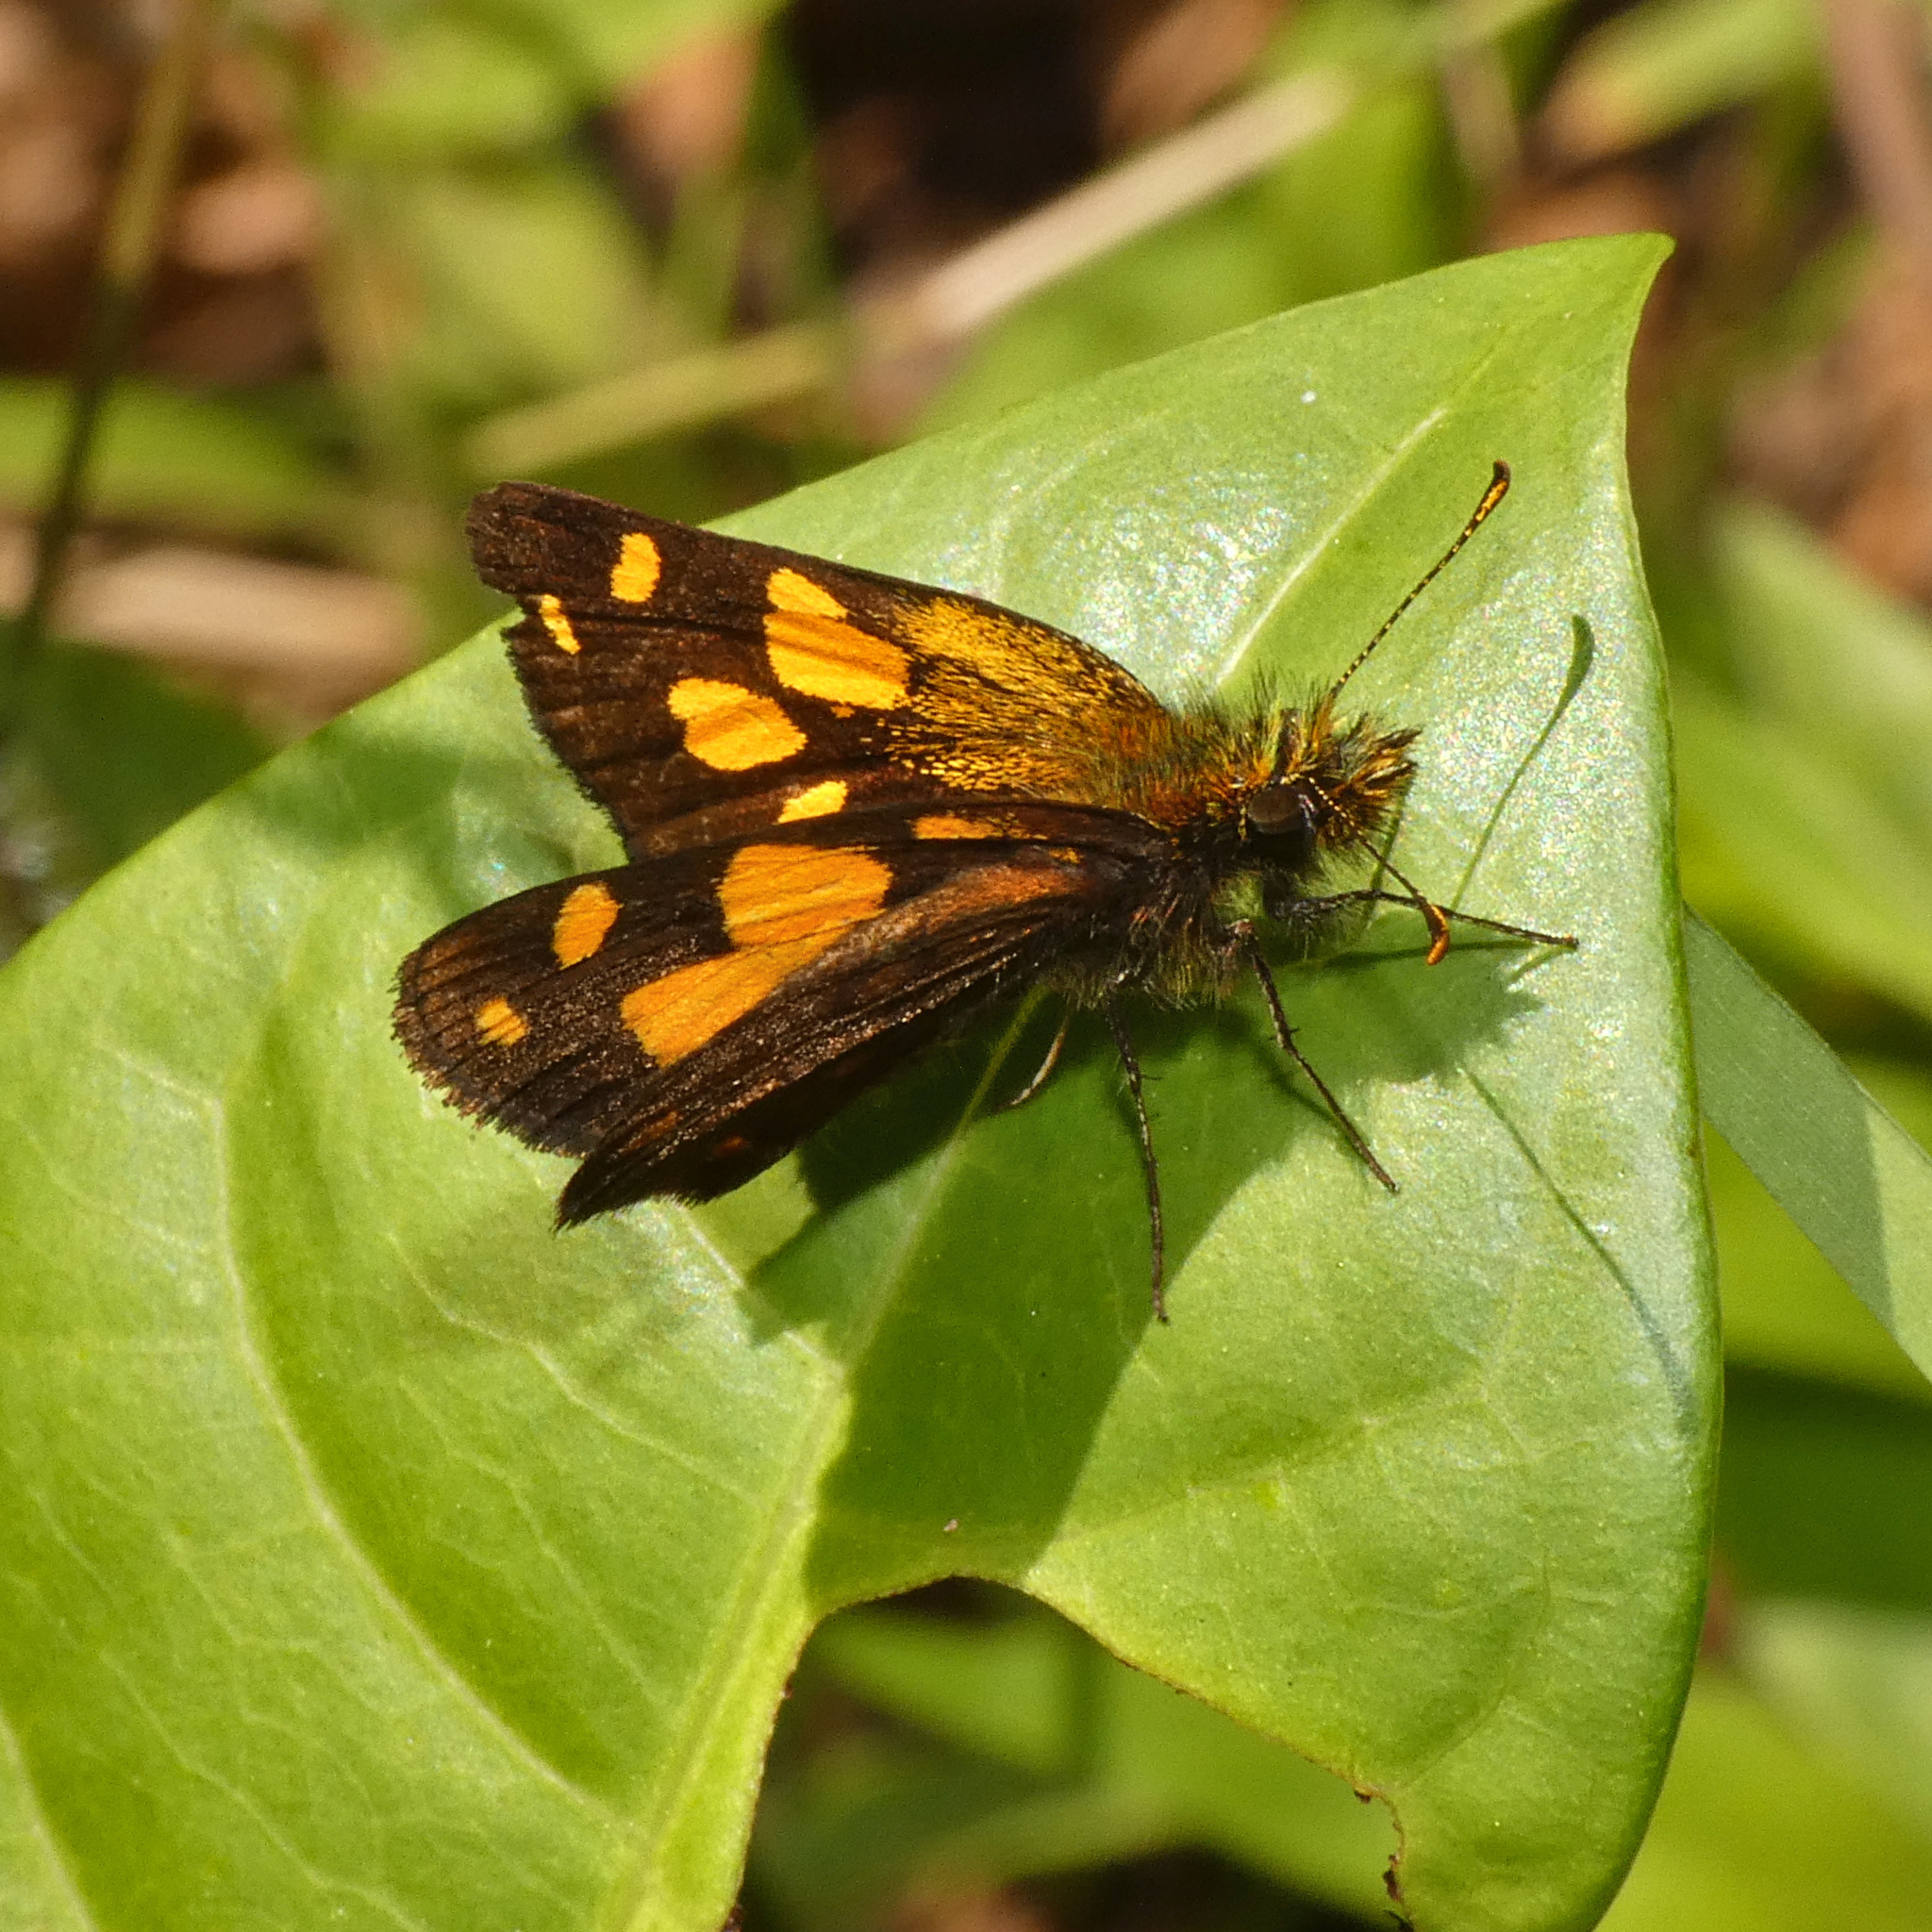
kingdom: Animalia
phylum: Arthropoda
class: Insecta
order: Lepidoptera
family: Hesperiidae
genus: Metisella
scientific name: Metisella metis
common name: Western gold-spotted sylph
